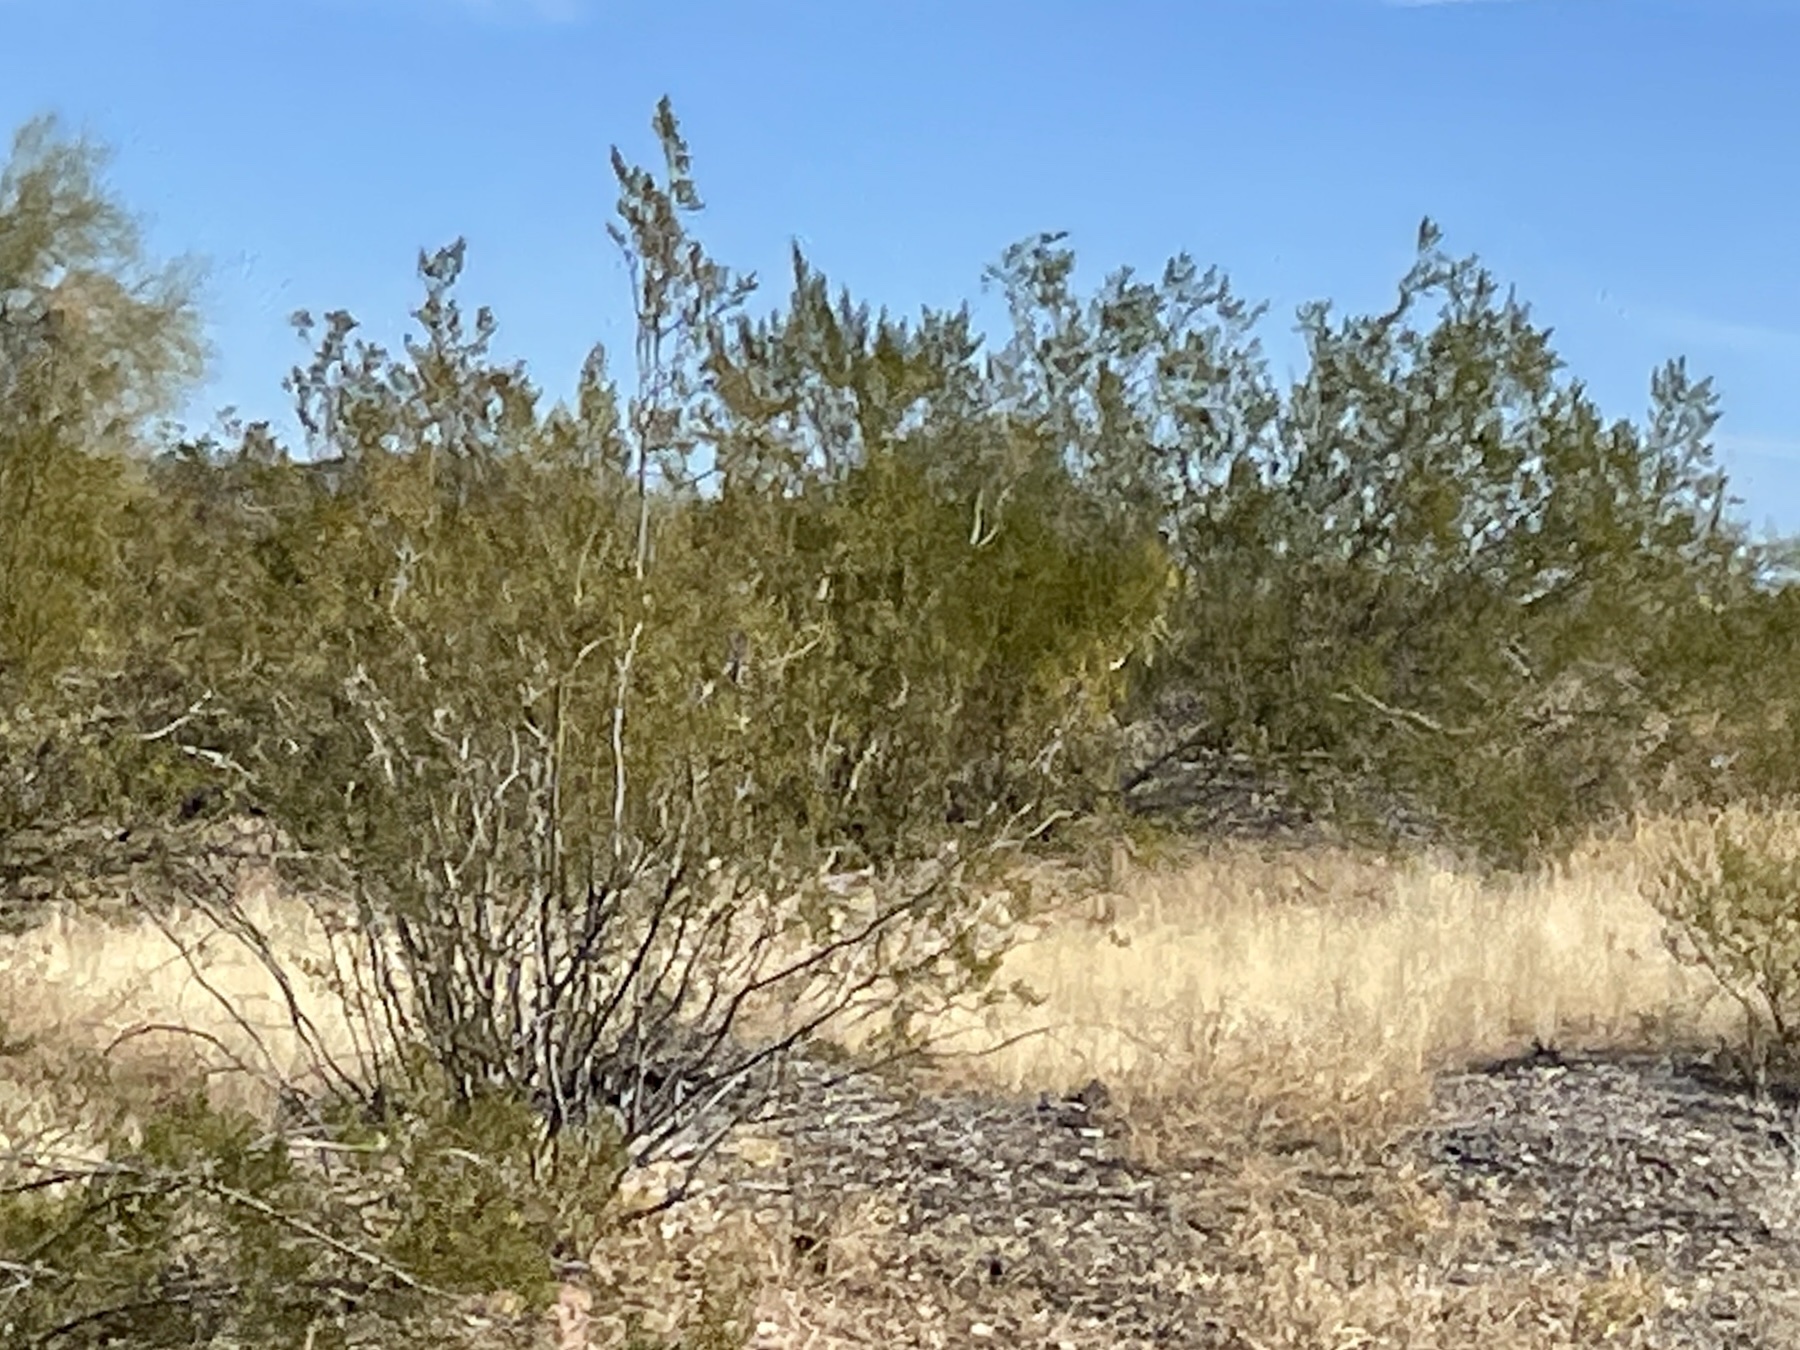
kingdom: Plantae
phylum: Tracheophyta
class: Magnoliopsida
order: Zygophyllales
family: Zygophyllaceae
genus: Larrea
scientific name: Larrea tridentata
